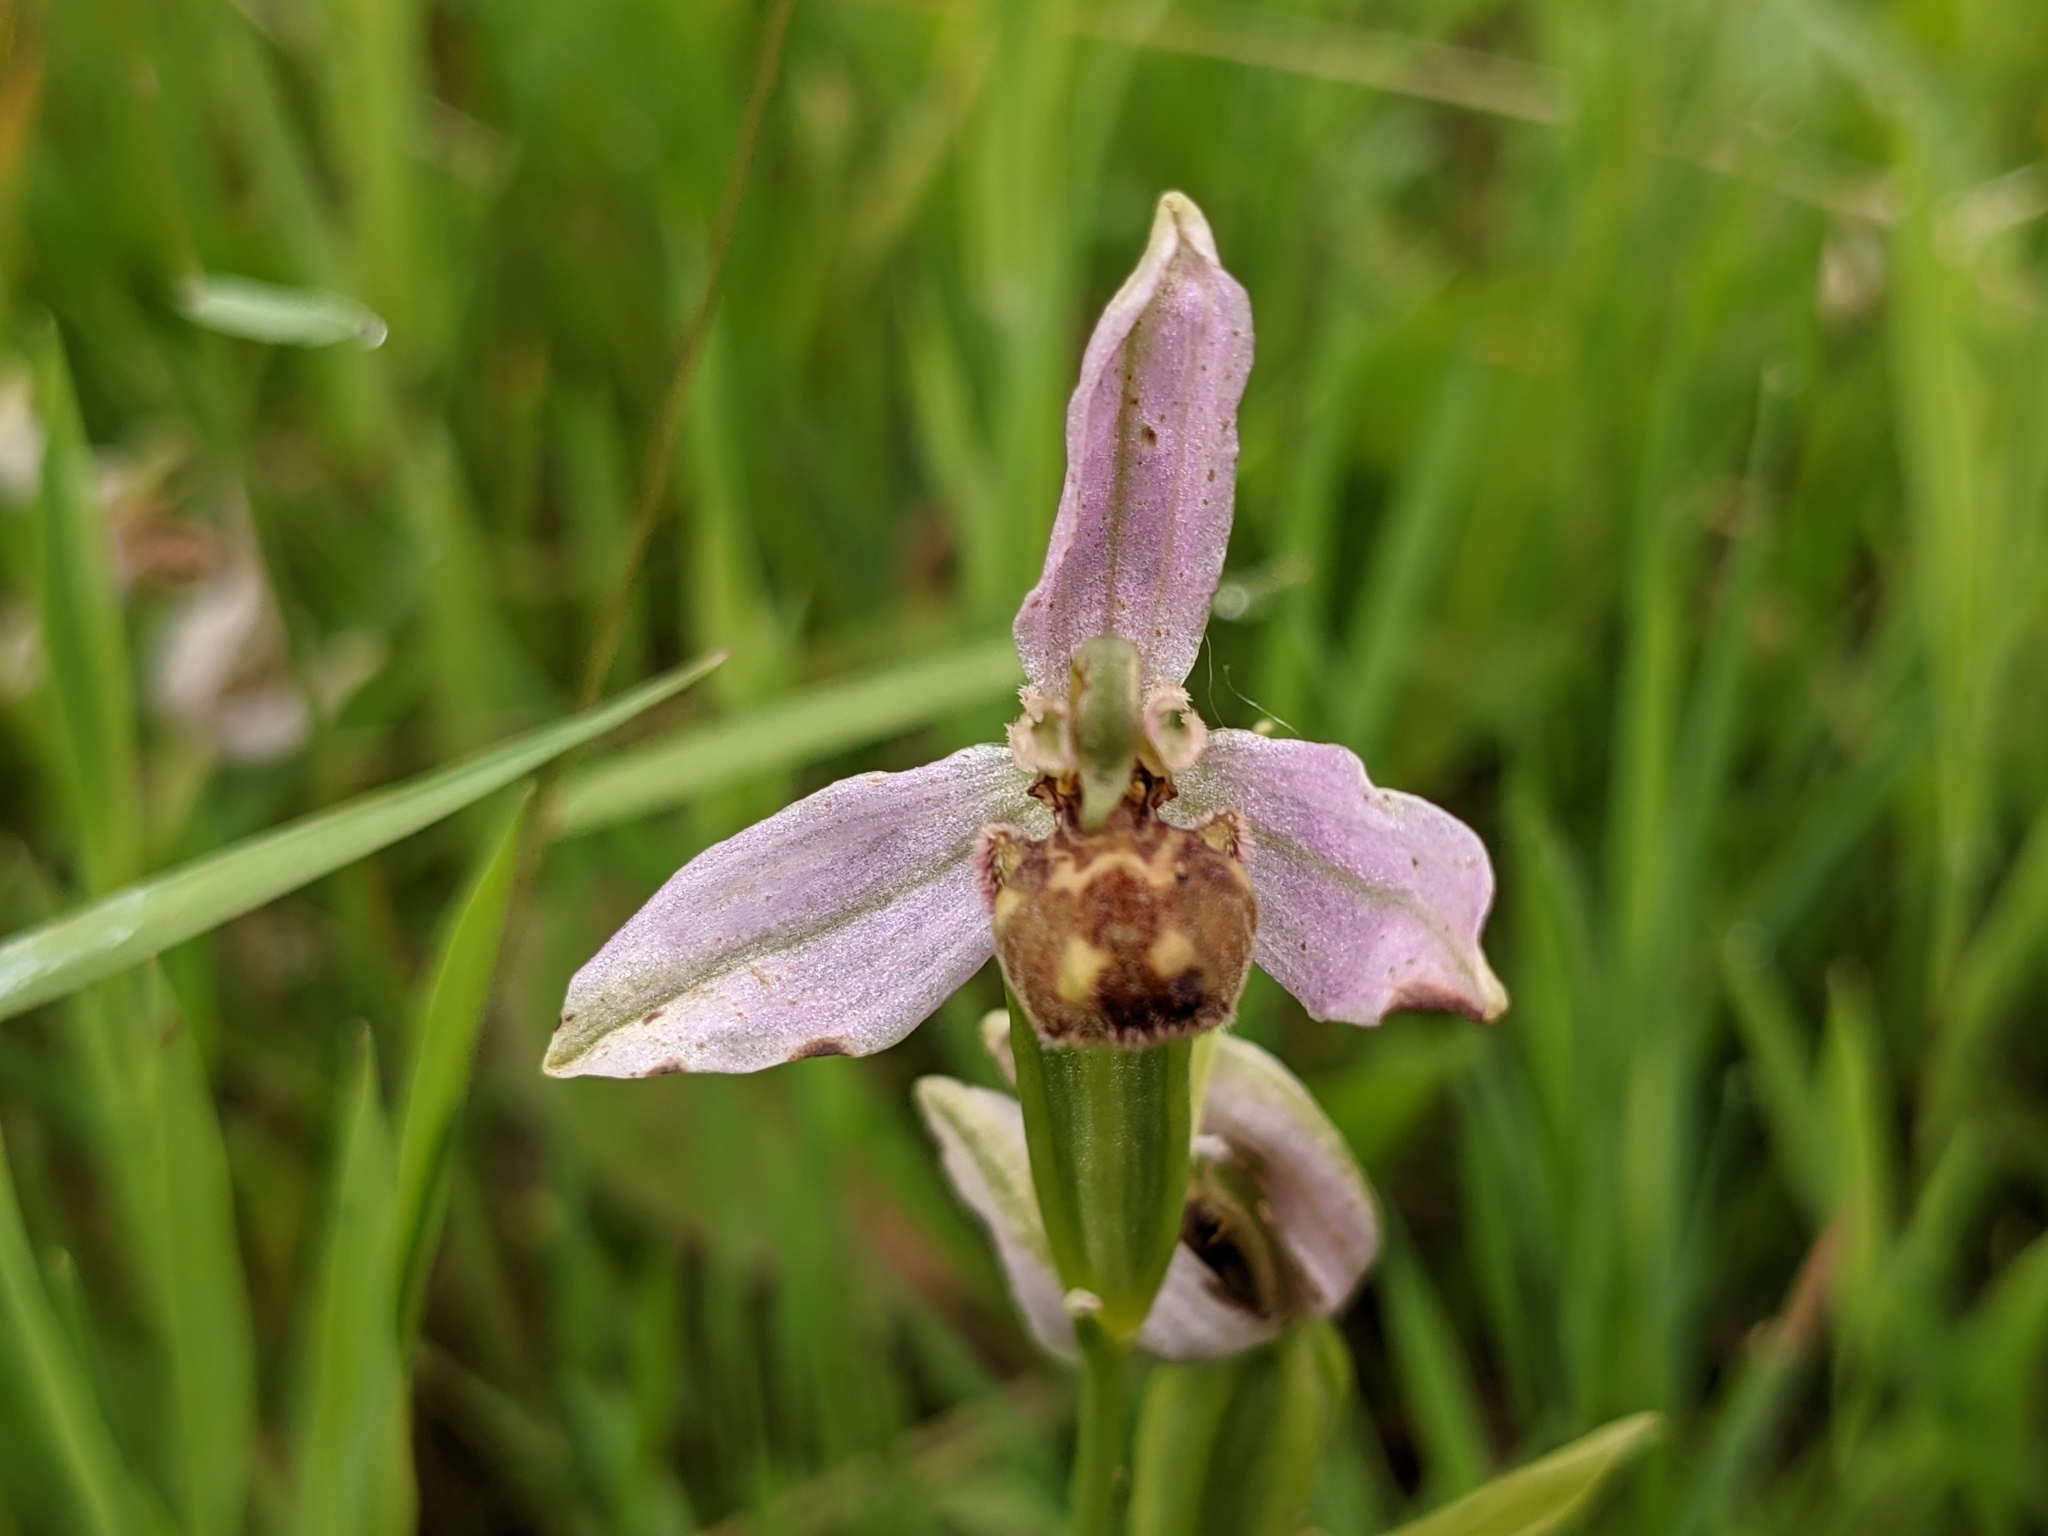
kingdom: Plantae
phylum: Tracheophyta
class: Liliopsida
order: Asparagales
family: Orchidaceae
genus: Ophrys
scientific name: Ophrys apifera
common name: Bee orchid
